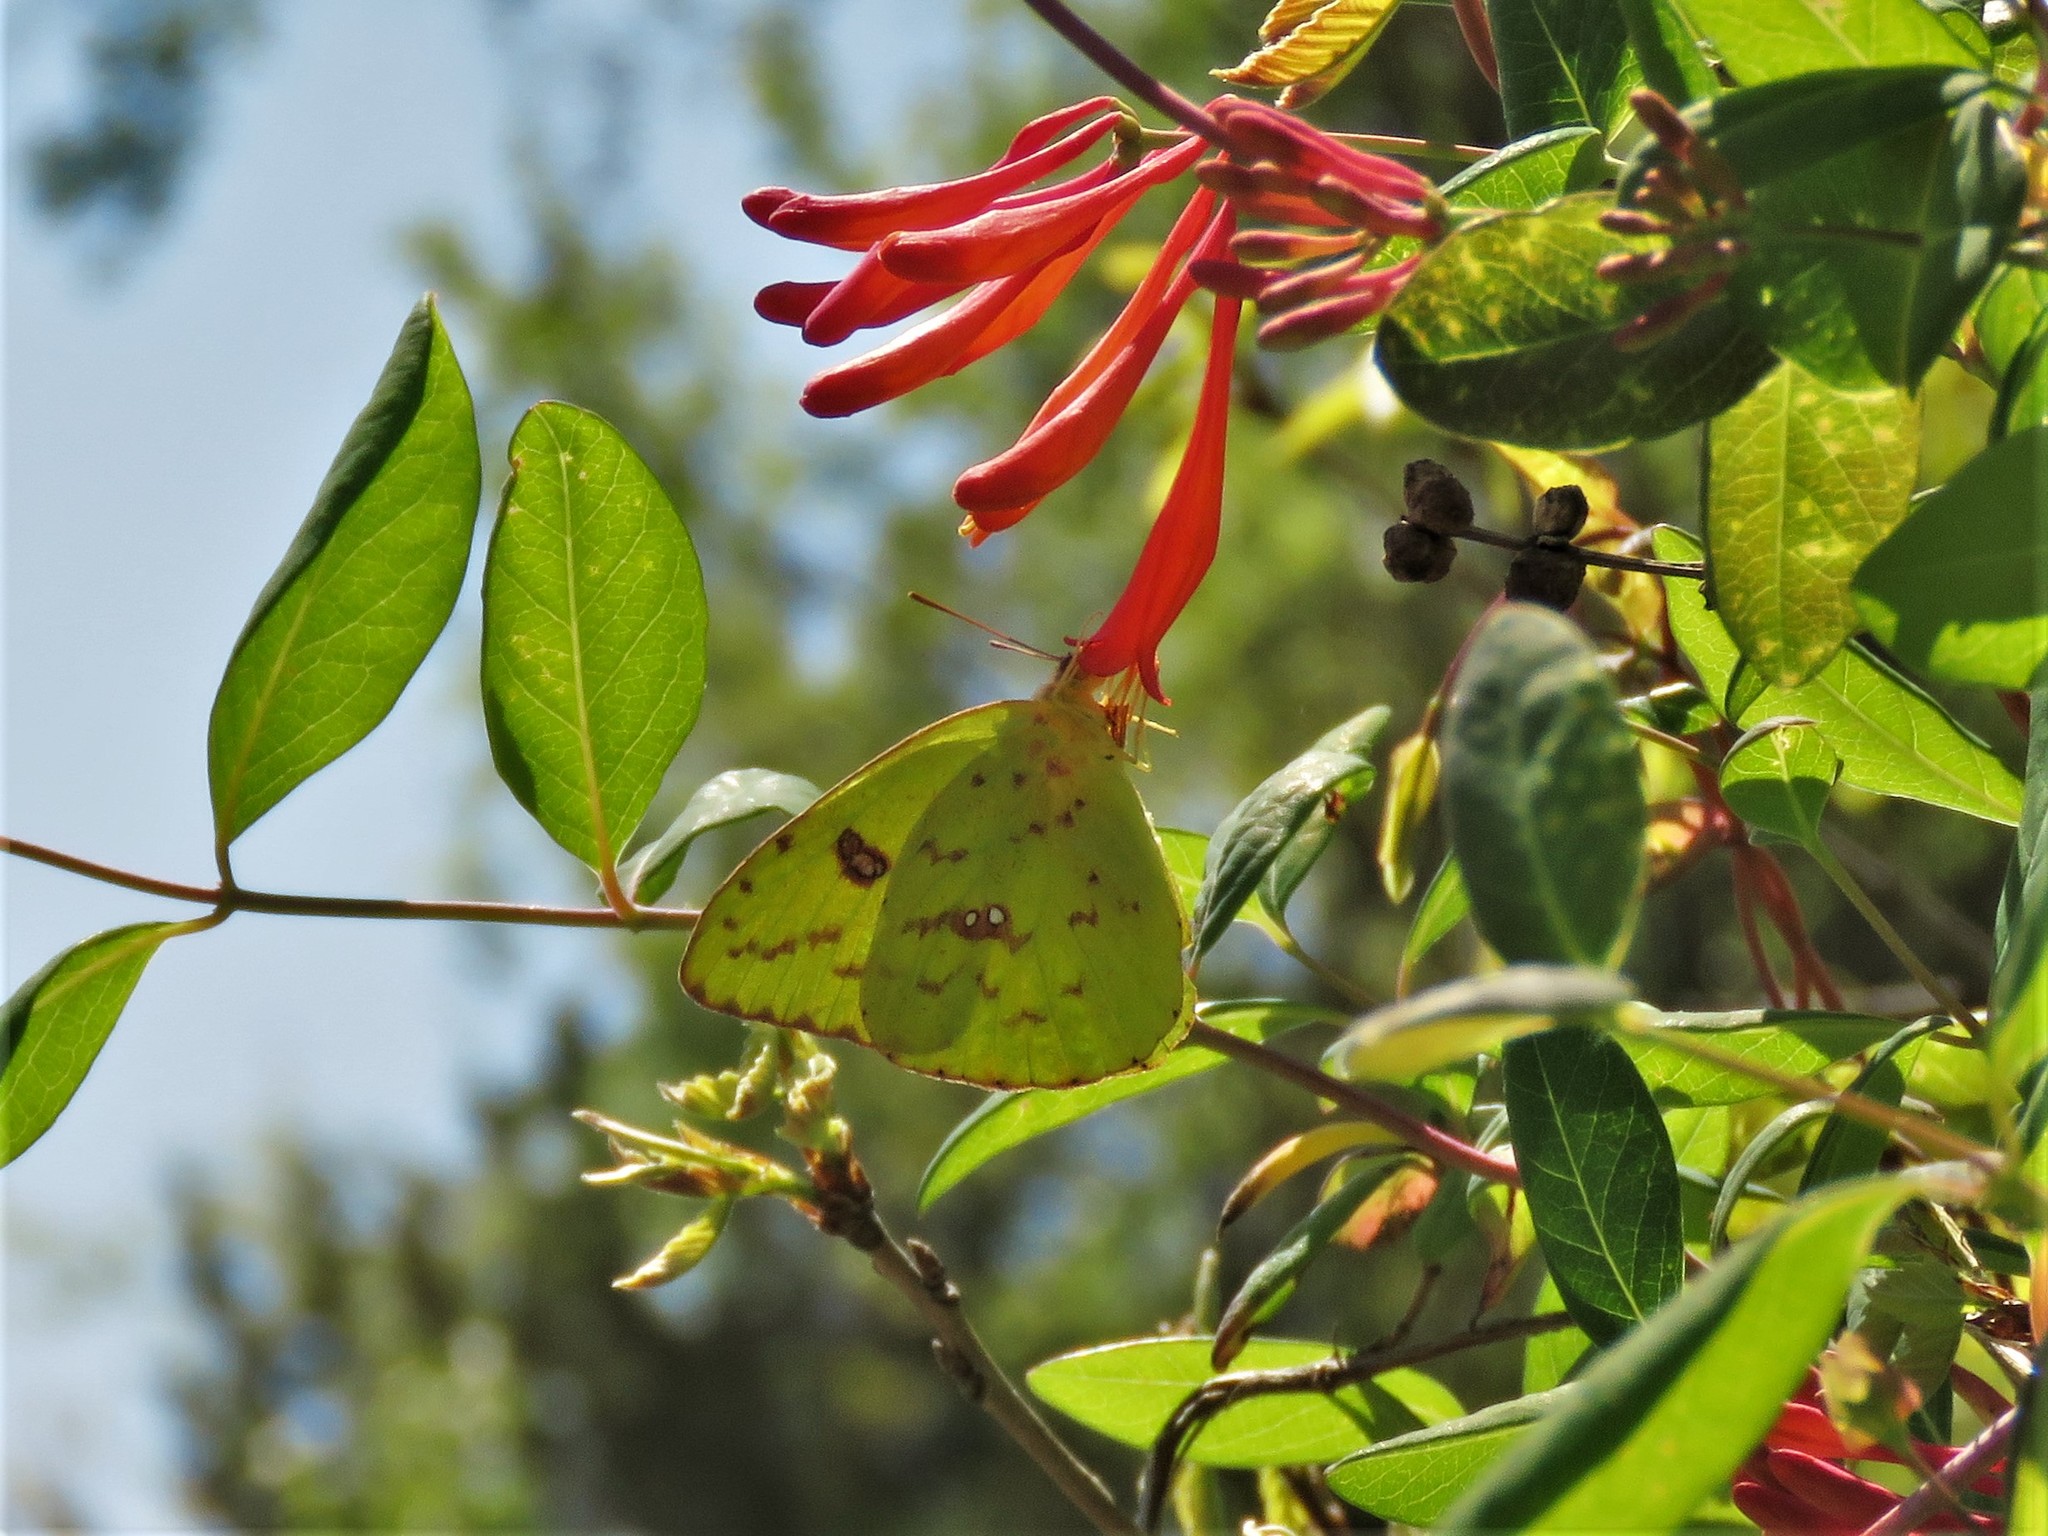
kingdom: Plantae
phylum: Tracheophyta
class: Magnoliopsida
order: Dipsacales
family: Caprifoliaceae
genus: Lonicera
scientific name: Lonicera sempervirens
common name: Coral honeysuckle
